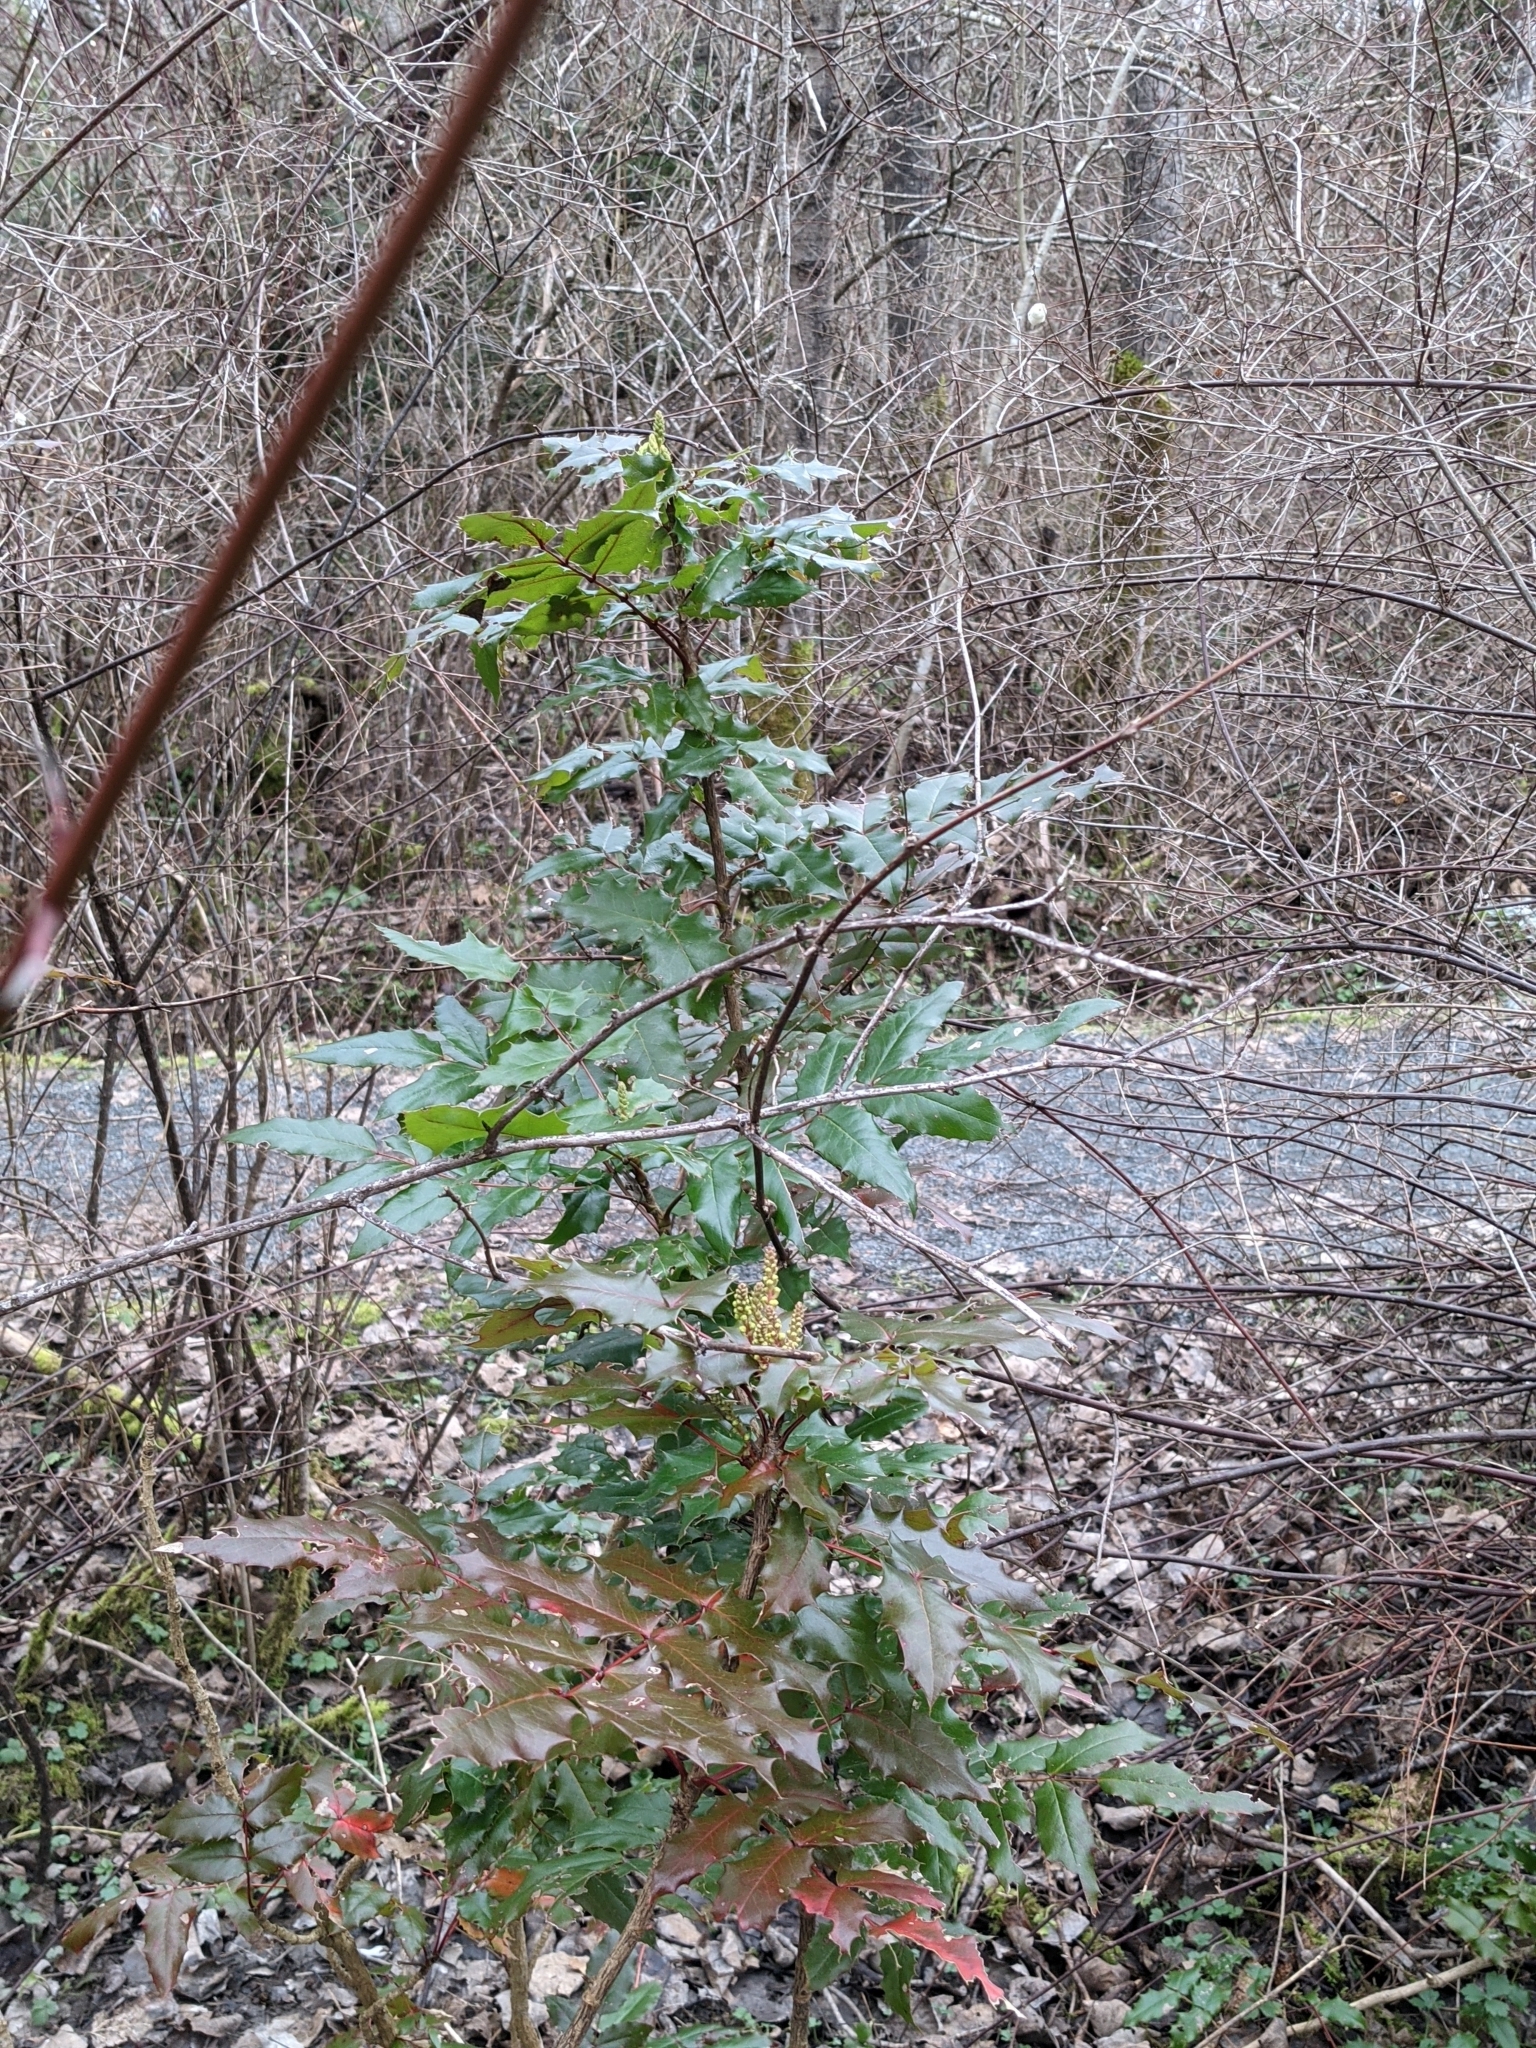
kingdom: Plantae
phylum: Tracheophyta
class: Magnoliopsida
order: Ranunculales
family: Berberidaceae
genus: Mahonia
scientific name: Mahonia aquifolium
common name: Oregon-grape
